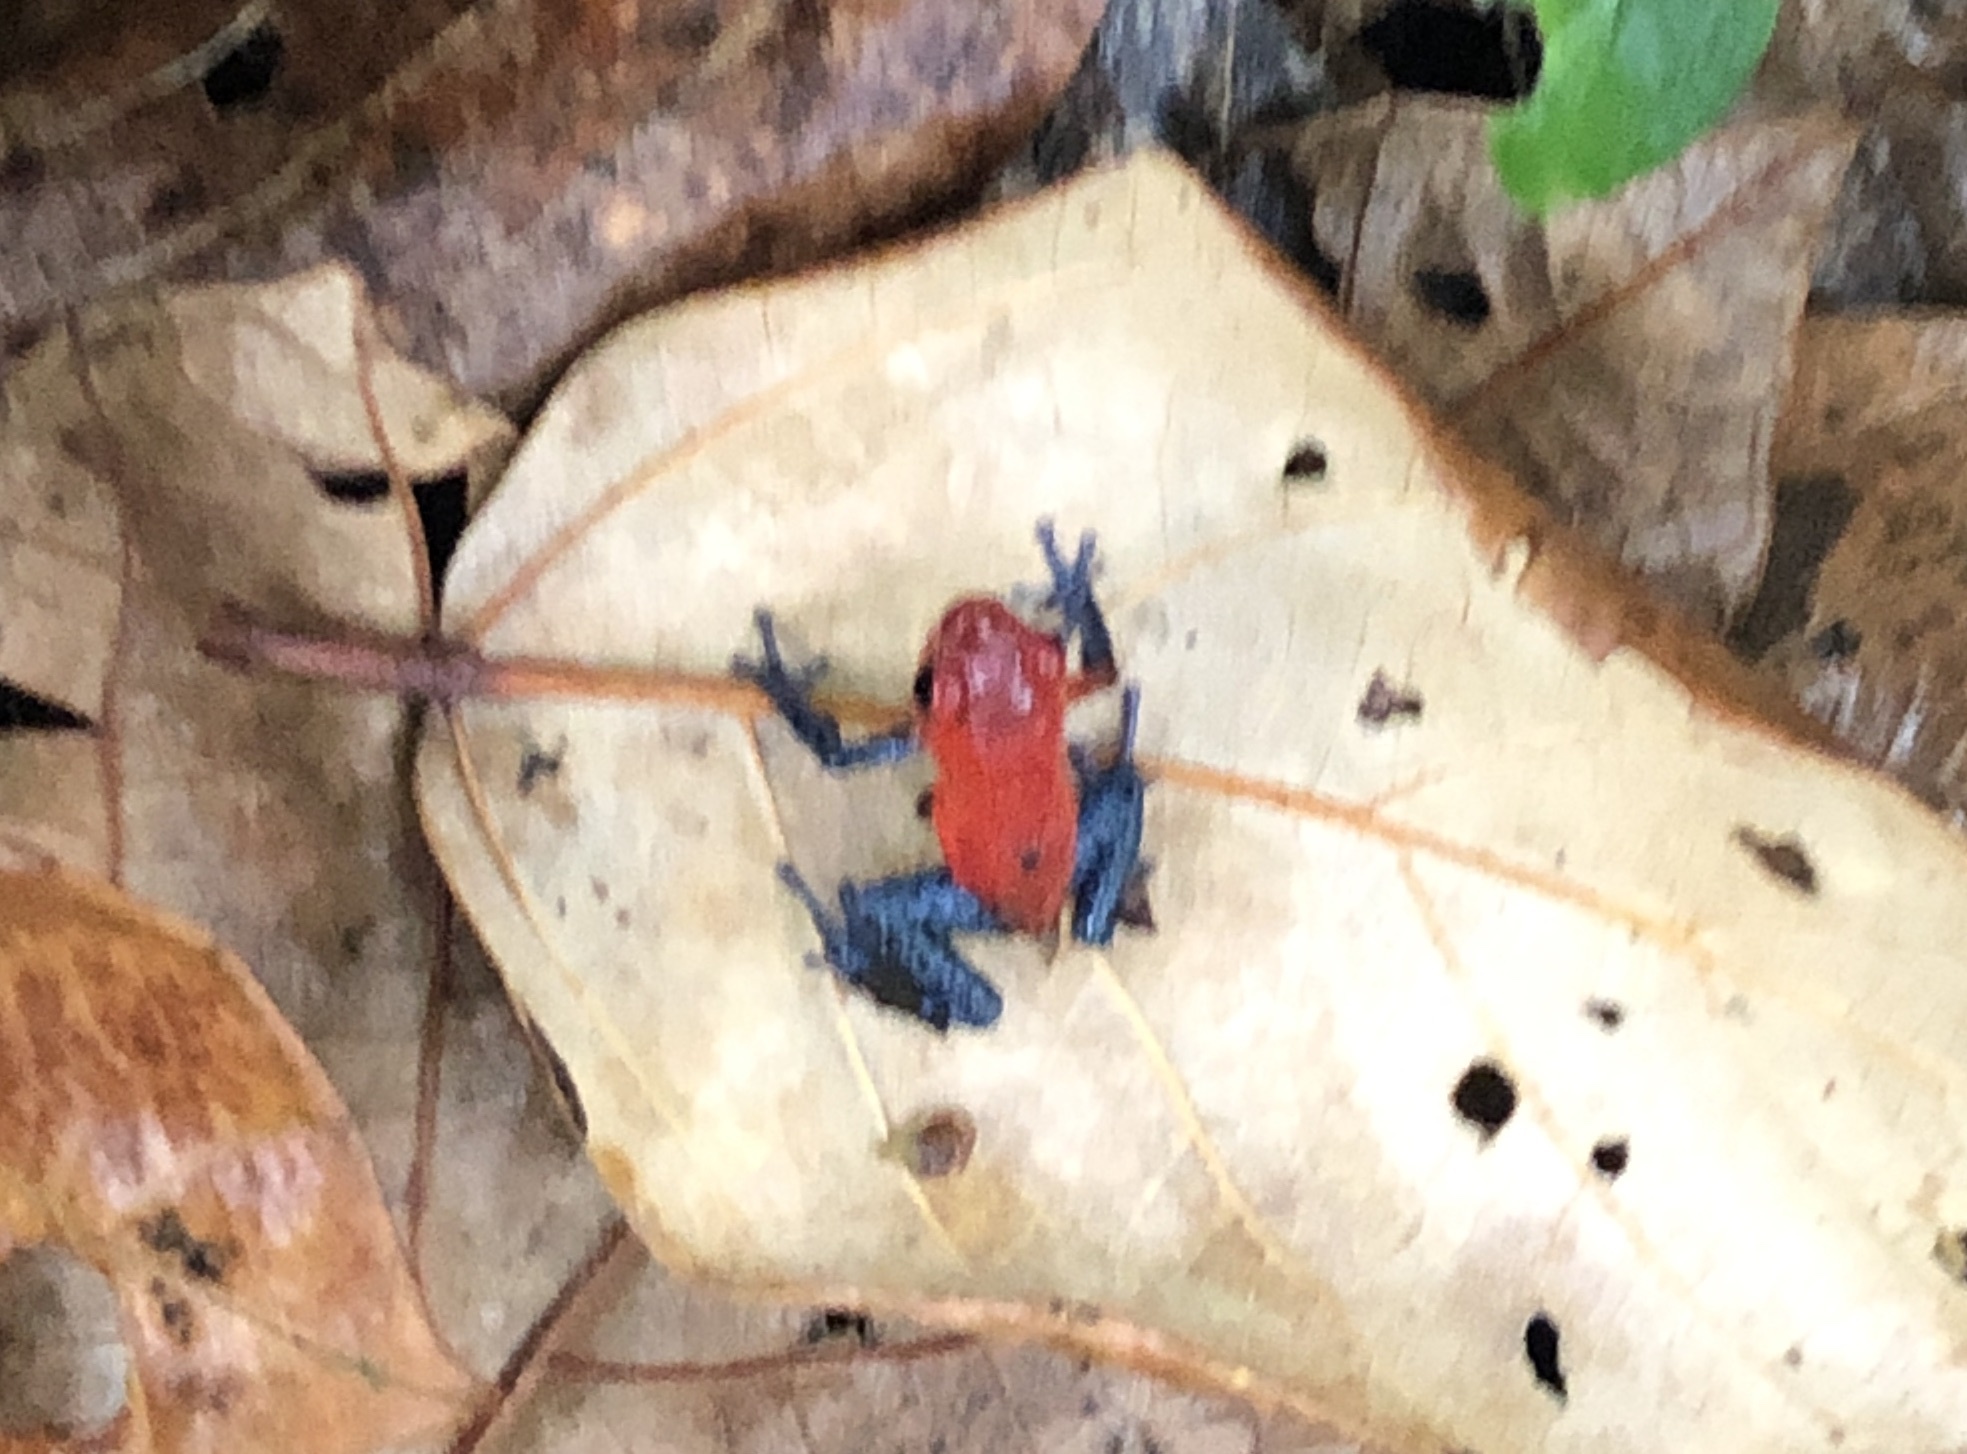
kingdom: Animalia
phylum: Chordata
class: Amphibia
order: Anura
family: Dendrobatidae
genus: Oophaga
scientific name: Oophaga pumilio
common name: Flaming poison frog
